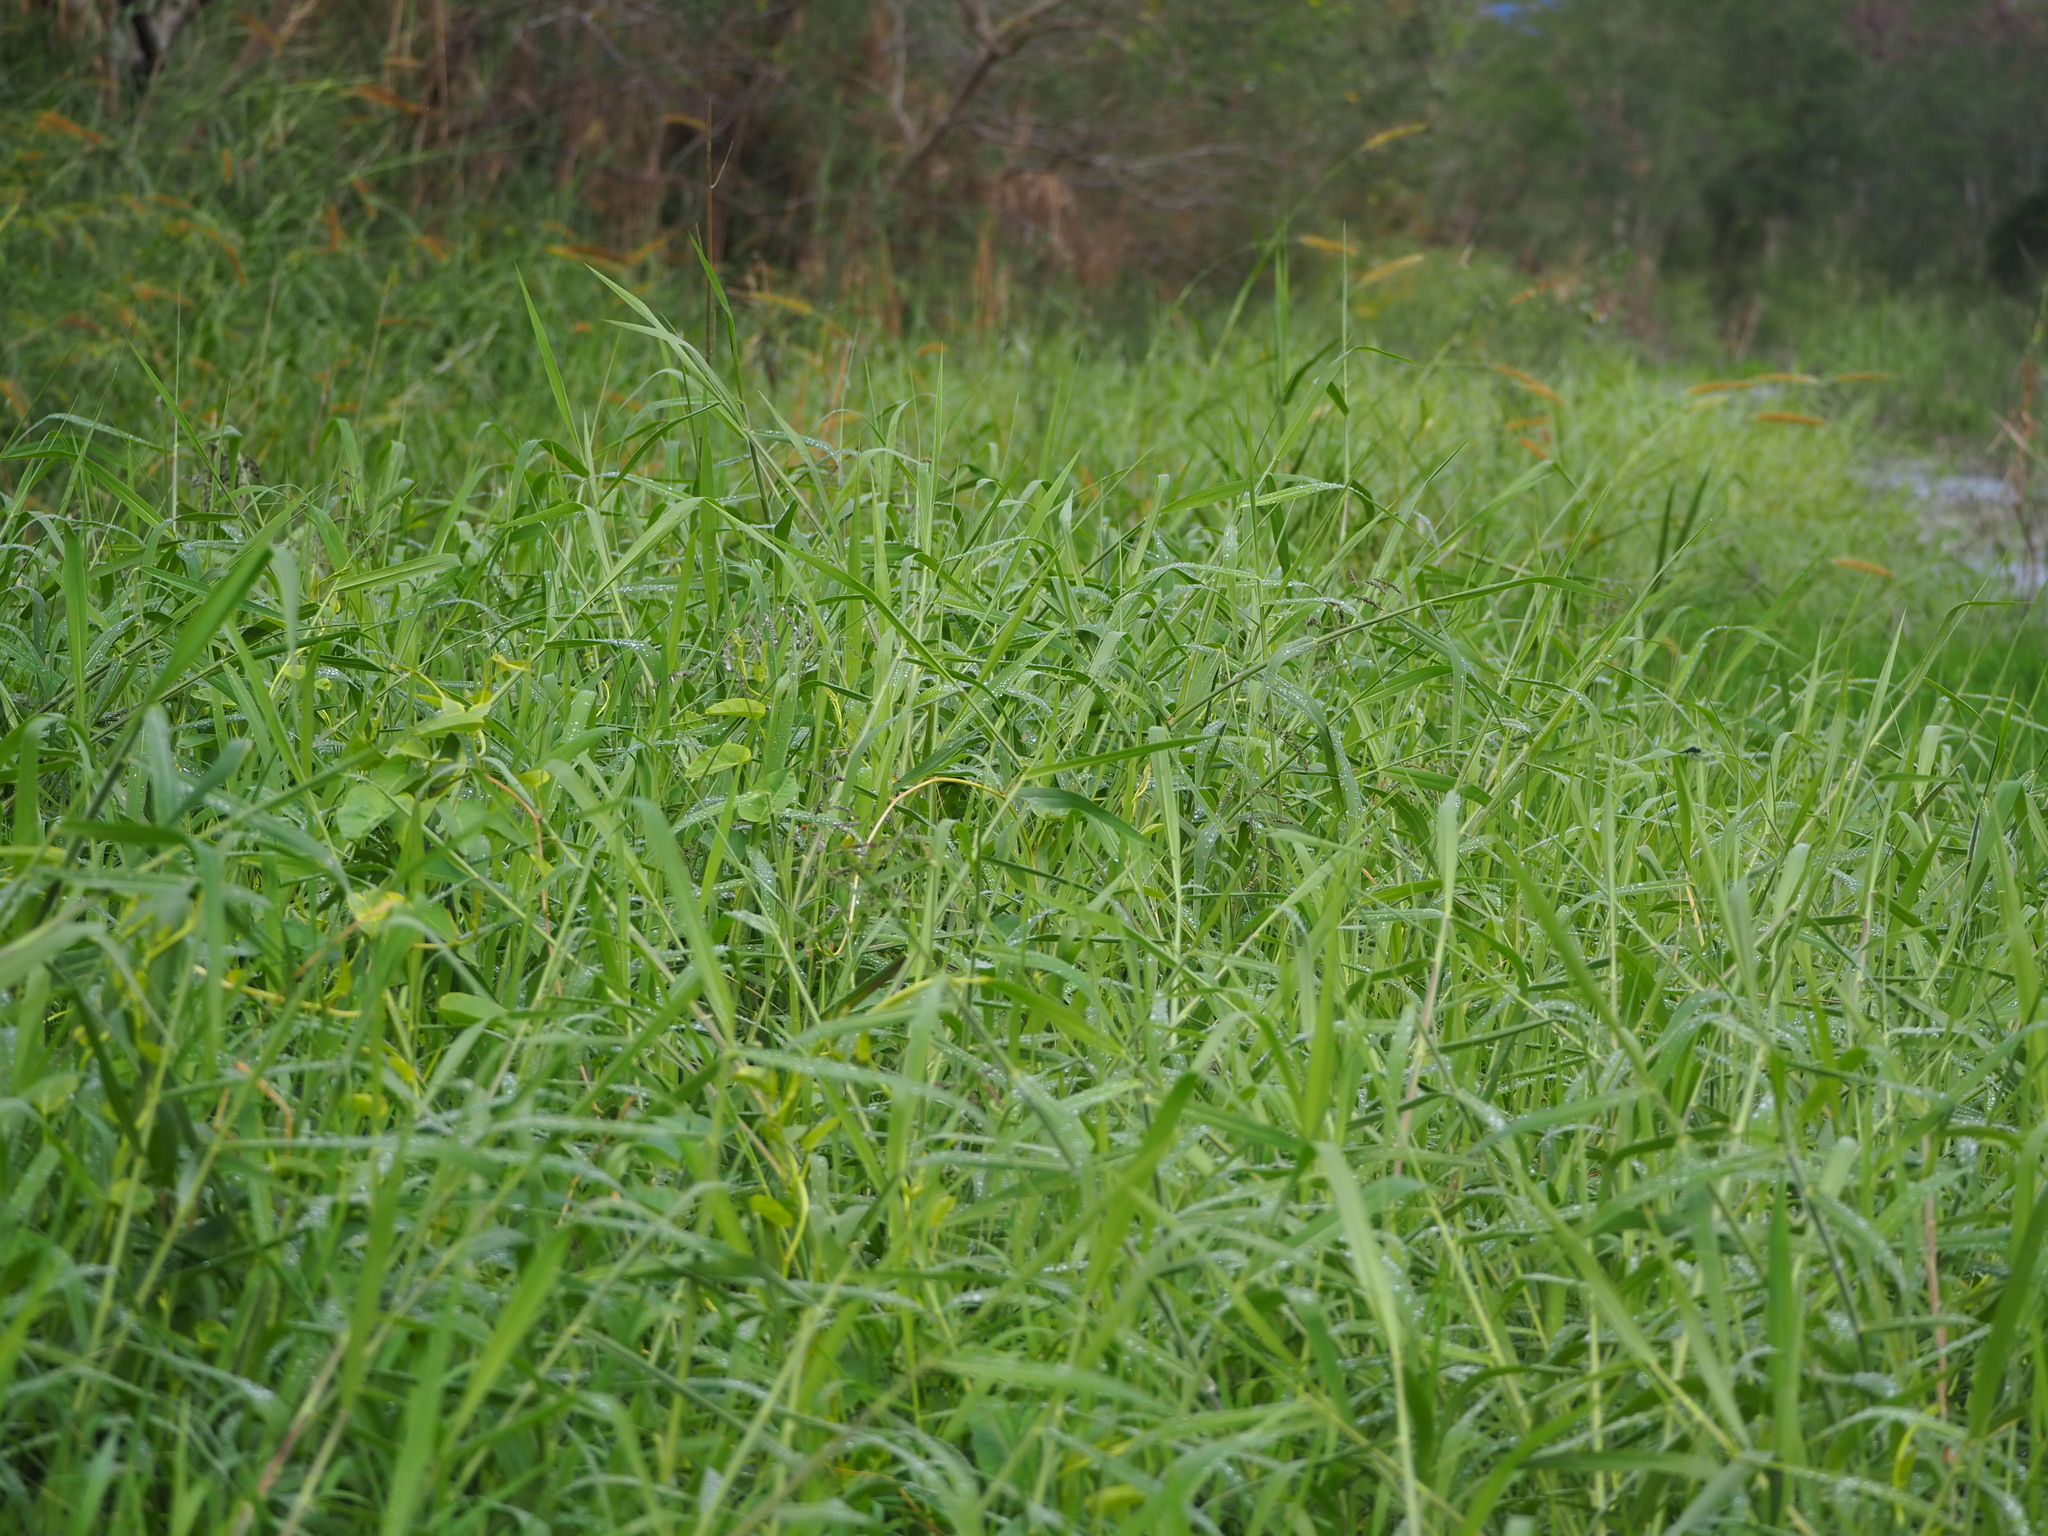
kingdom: Plantae
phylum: Tracheophyta
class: Liliopsida
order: Poales
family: Poaceae
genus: Urochloa
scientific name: Urochloa mutica
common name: Para grass
